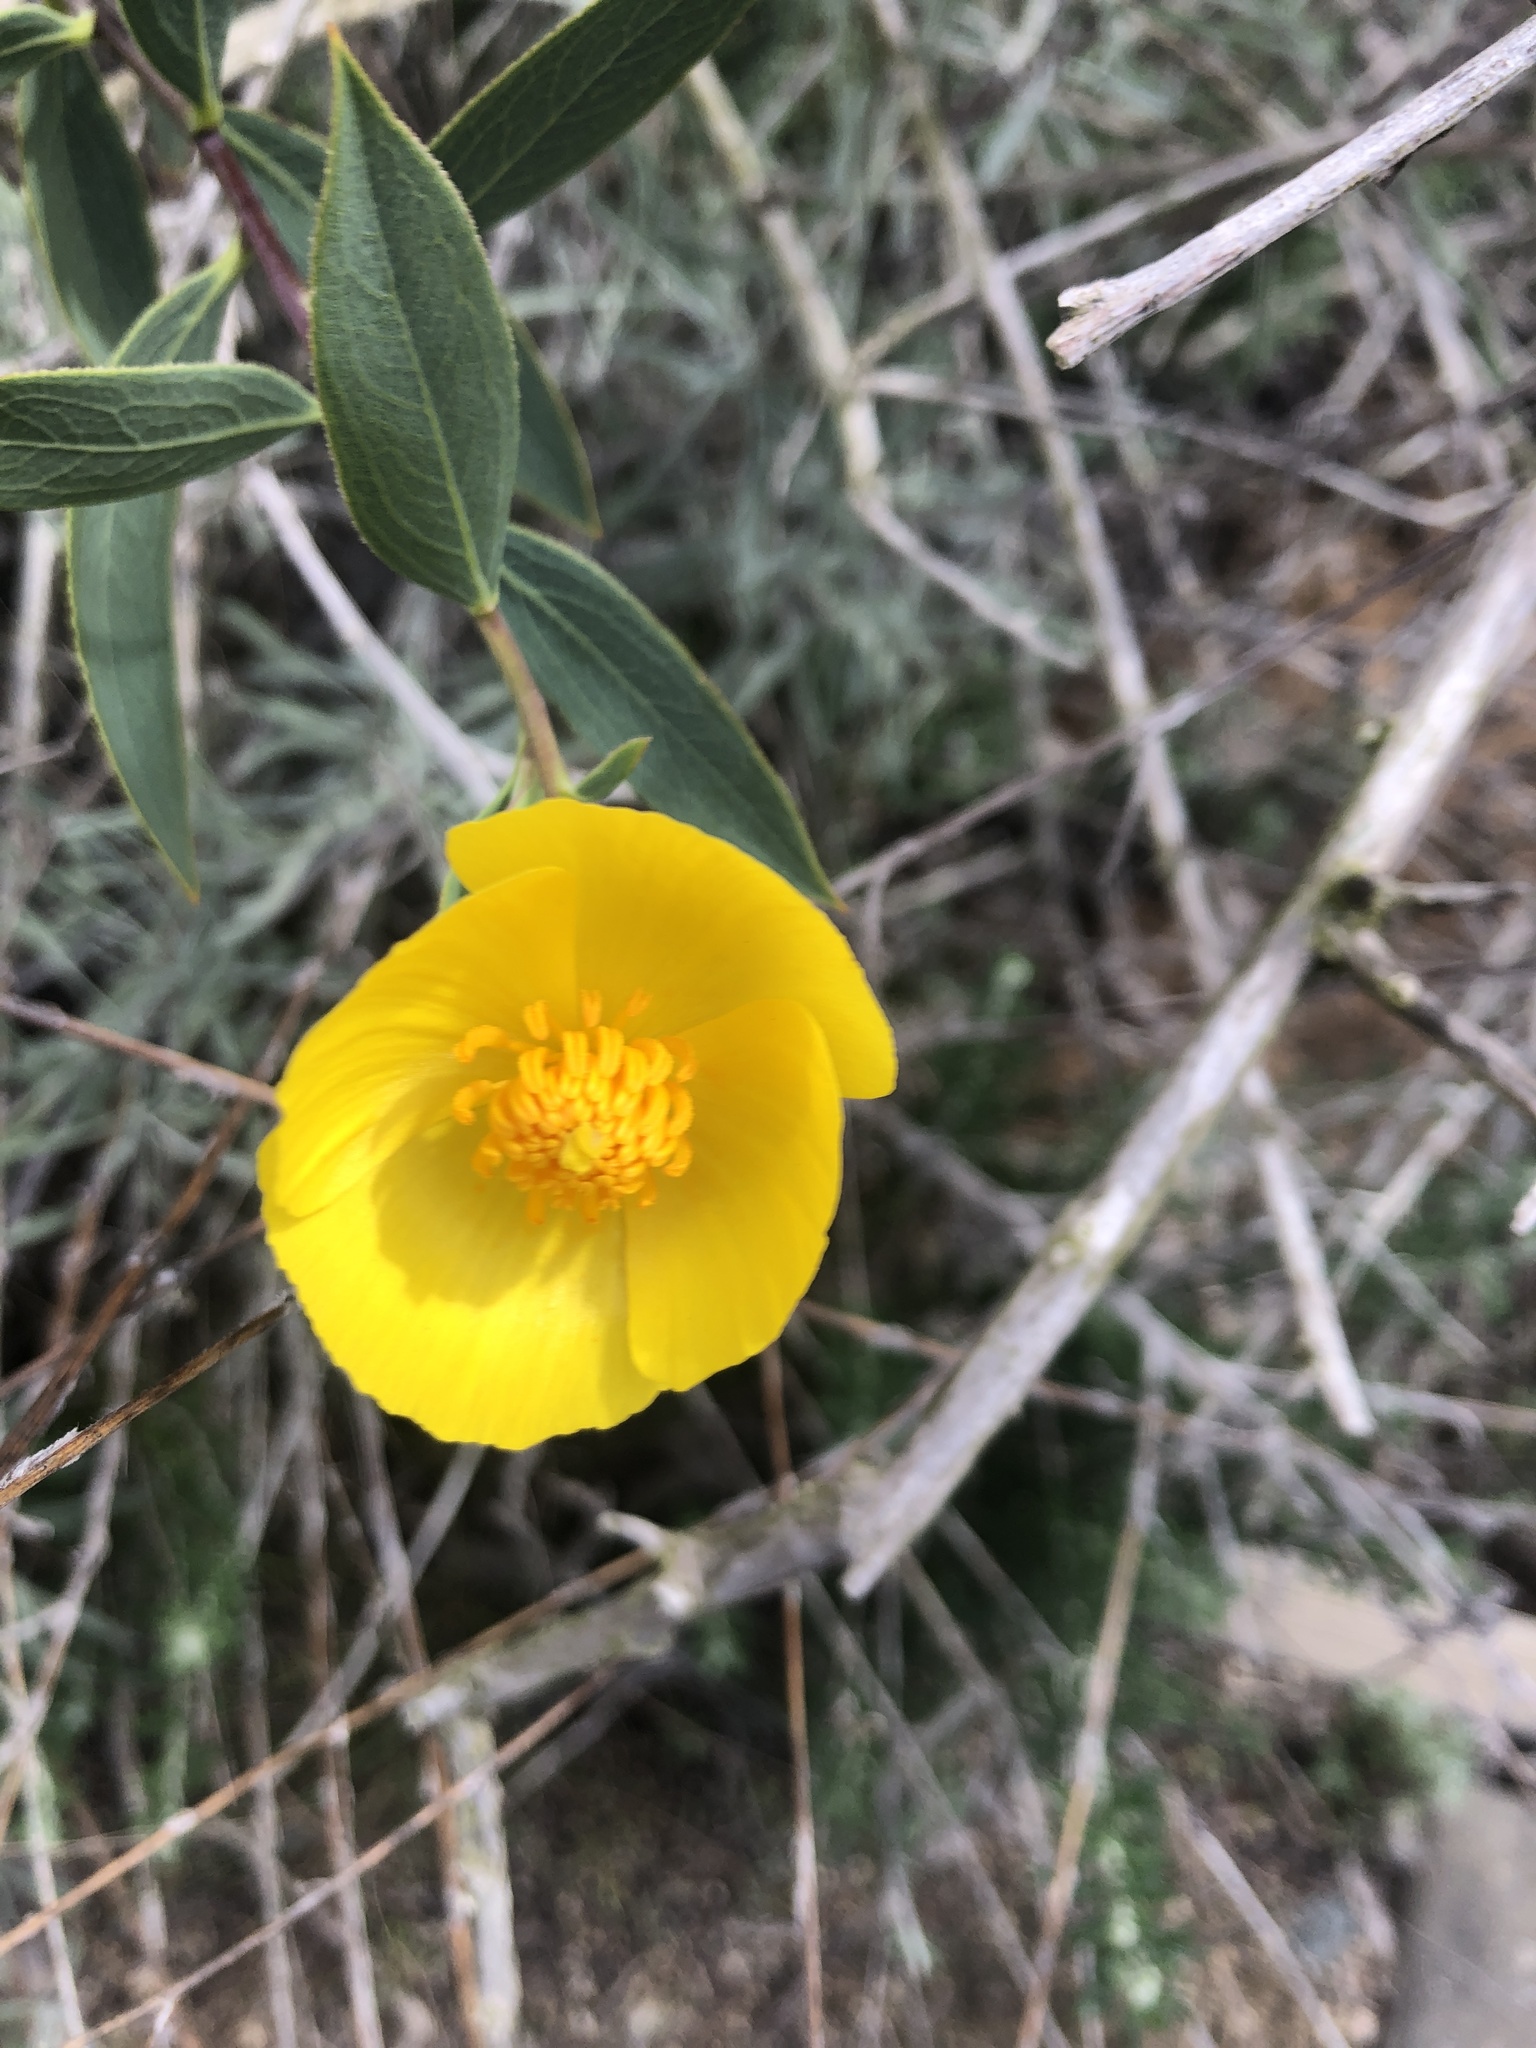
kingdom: Plantae
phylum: Tracheophyta
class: Magnoliopsida
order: Ranunculales
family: Papaveraceae
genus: Dendromecon
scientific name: Dendromecon rigida
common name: Tree poppy
